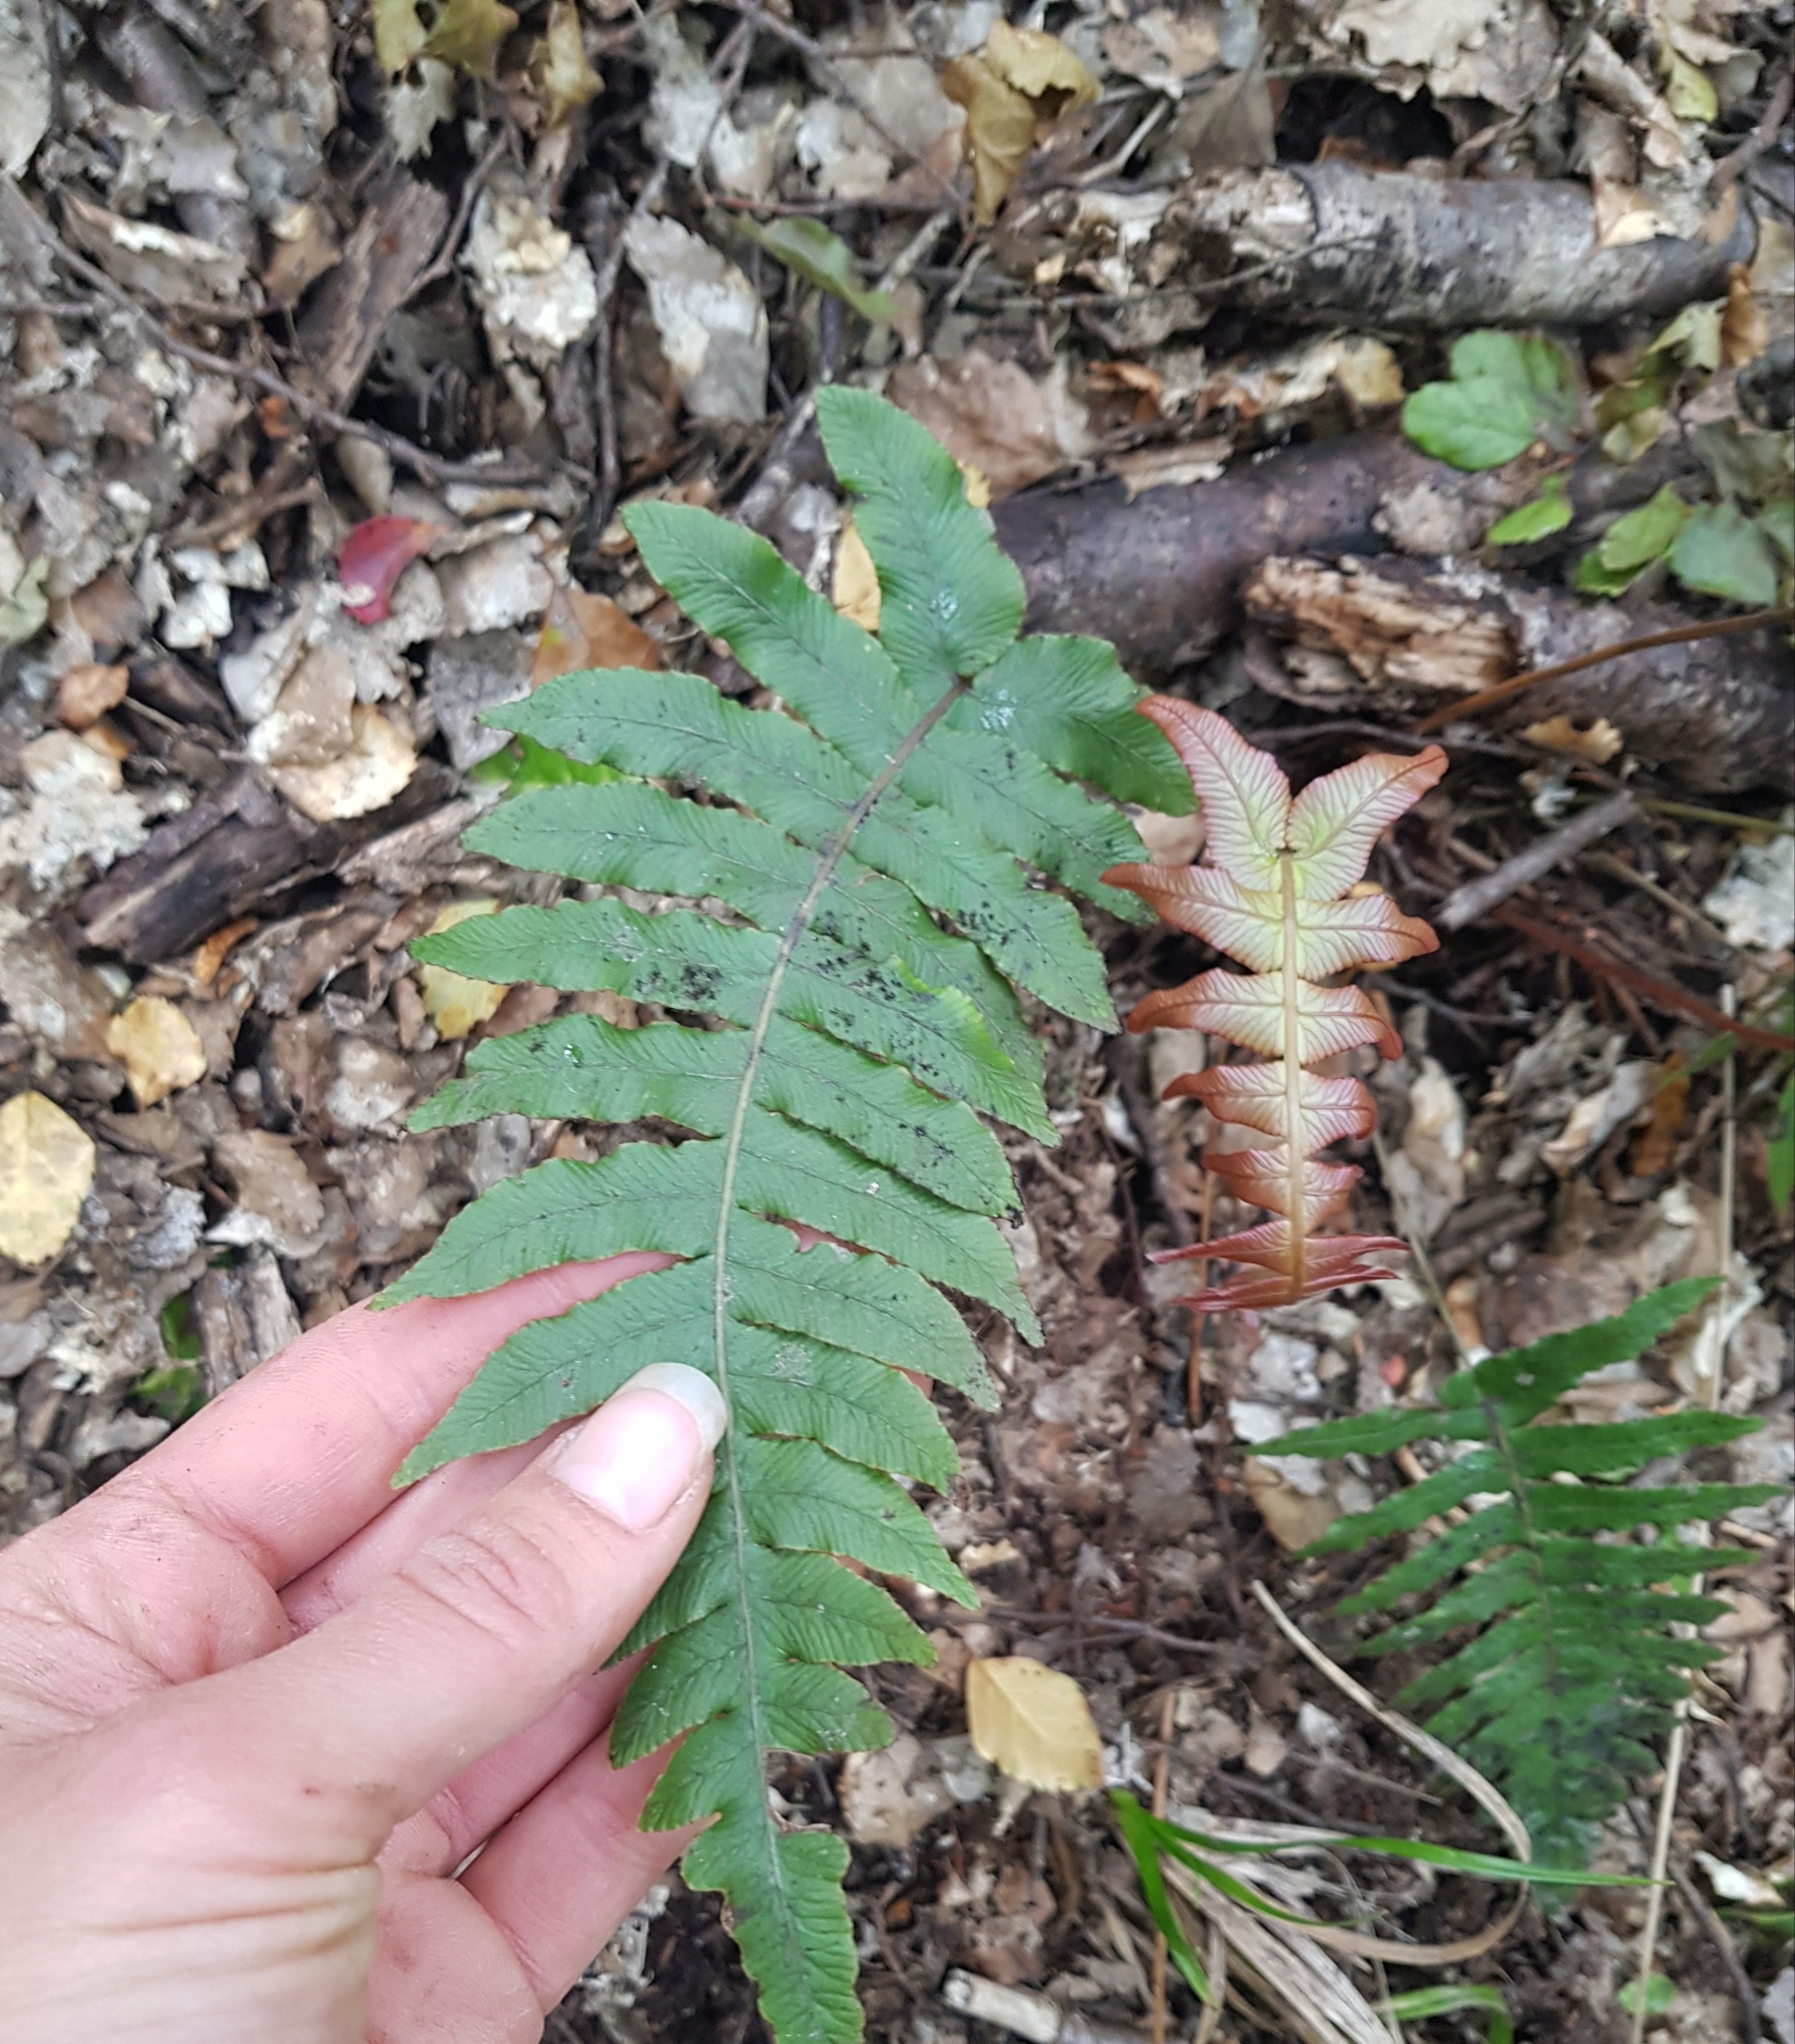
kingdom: Plantae
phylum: Tracheophyta
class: Polypodiopsida
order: Polypodiales
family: Blechnaceae
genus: Cranfillia
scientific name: Cranfillia deltoides
